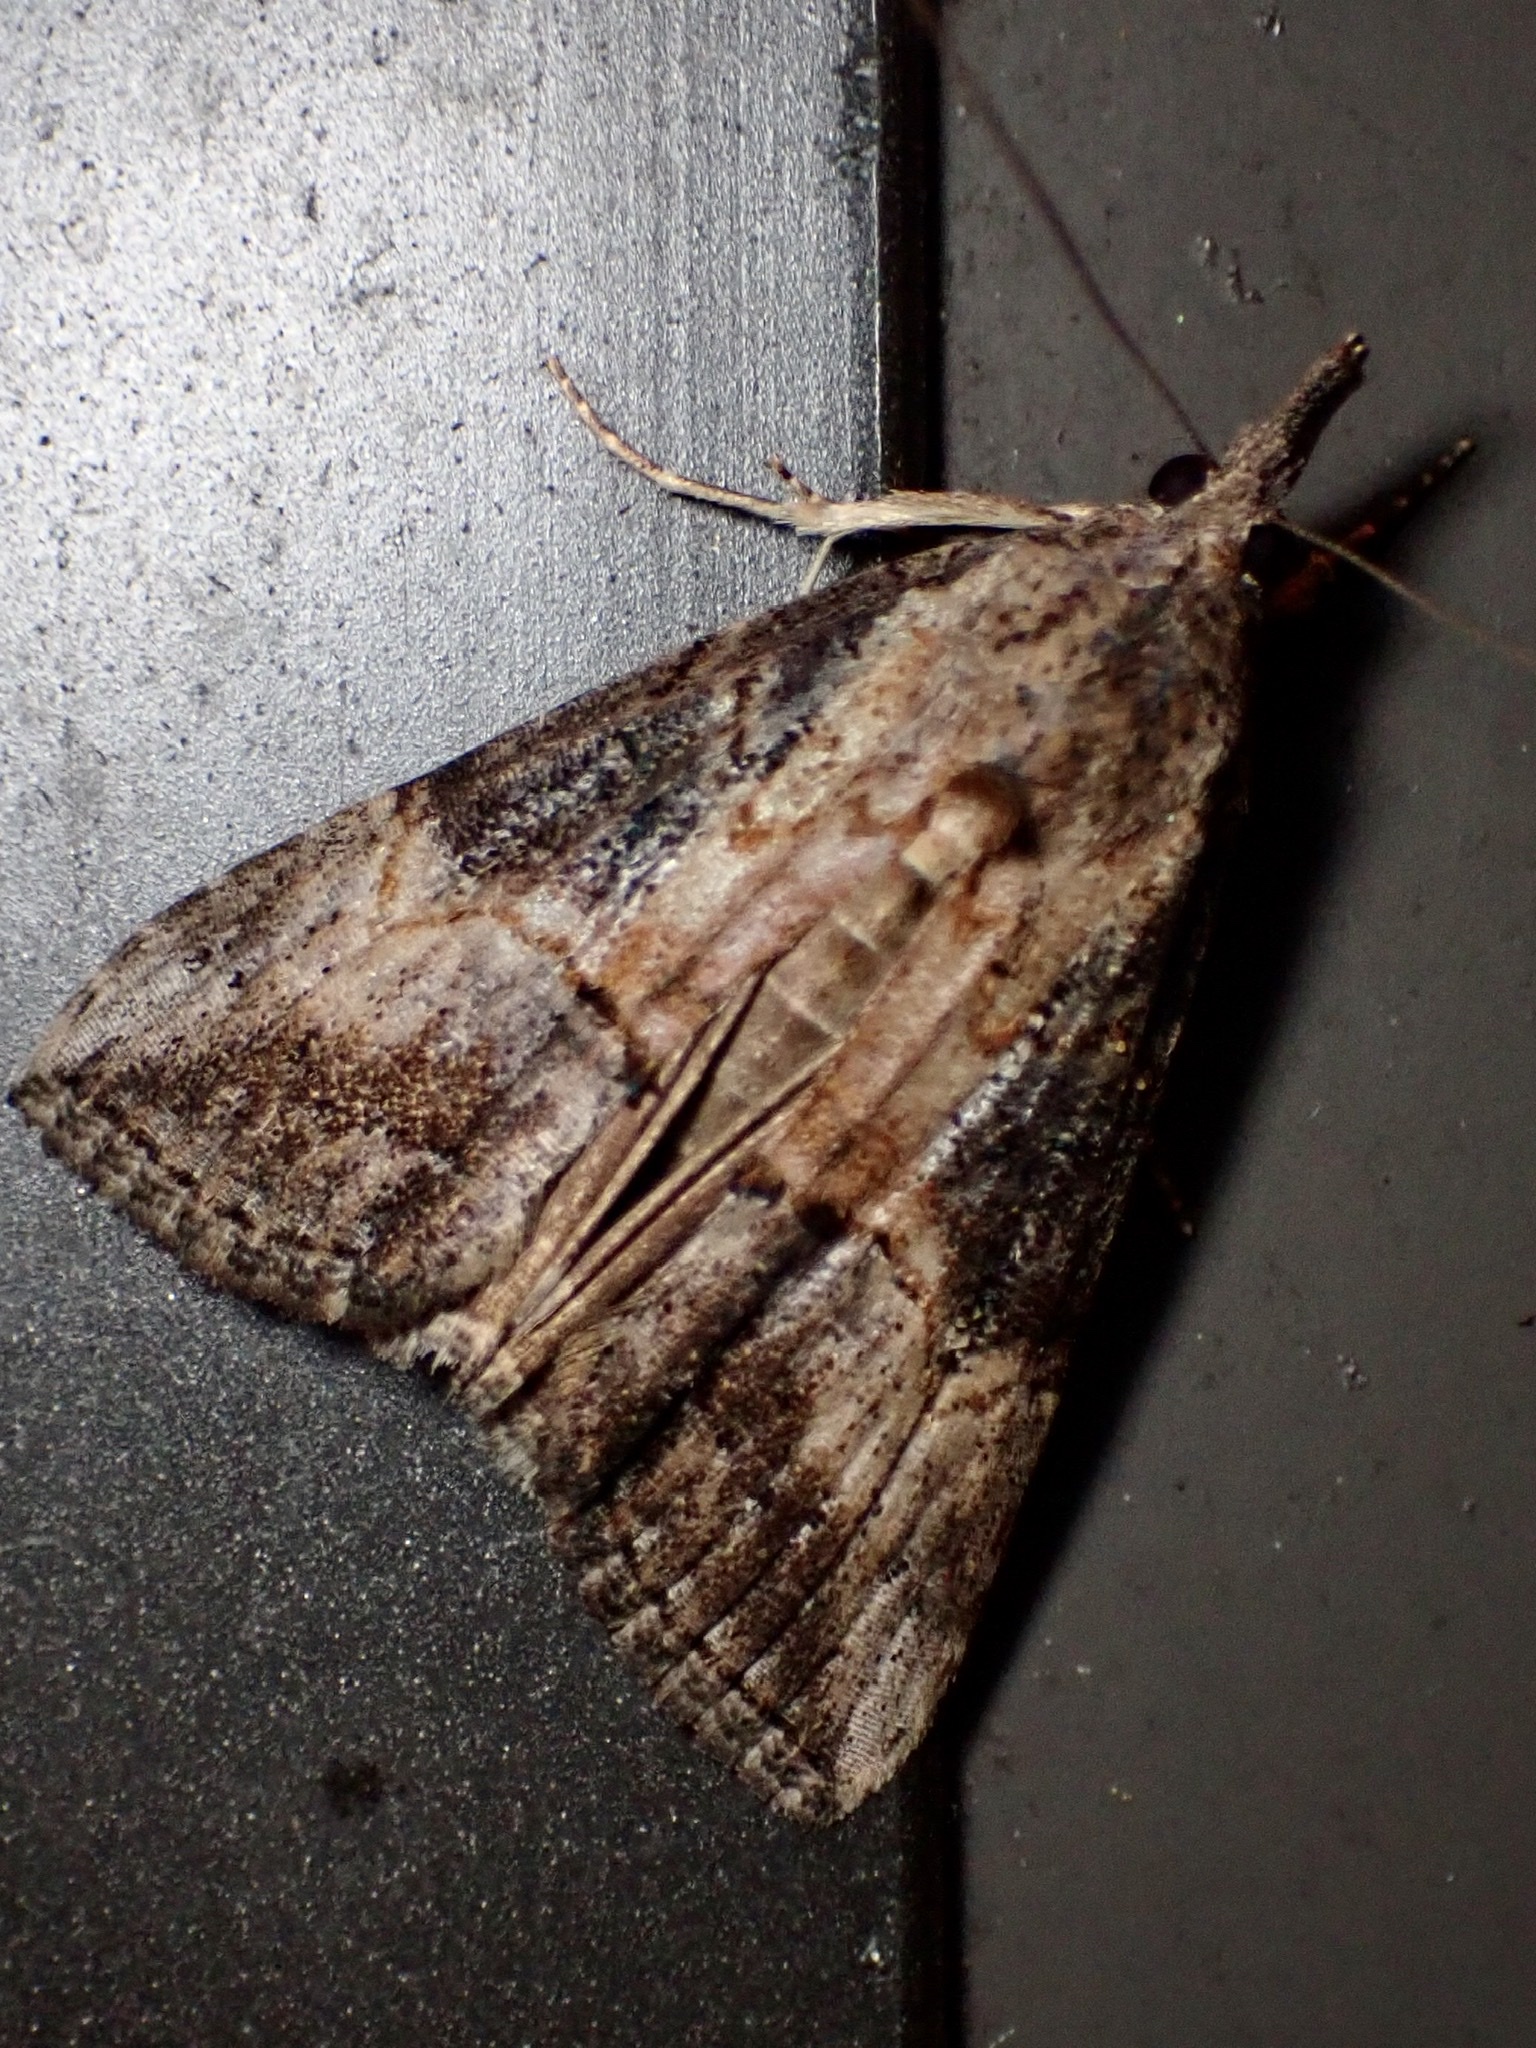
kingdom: Animalia
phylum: Arthropoda
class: Insecta
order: Lepidoptera
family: Erebidae
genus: Hypena
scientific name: Hypena scabra
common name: Green cloverworm
